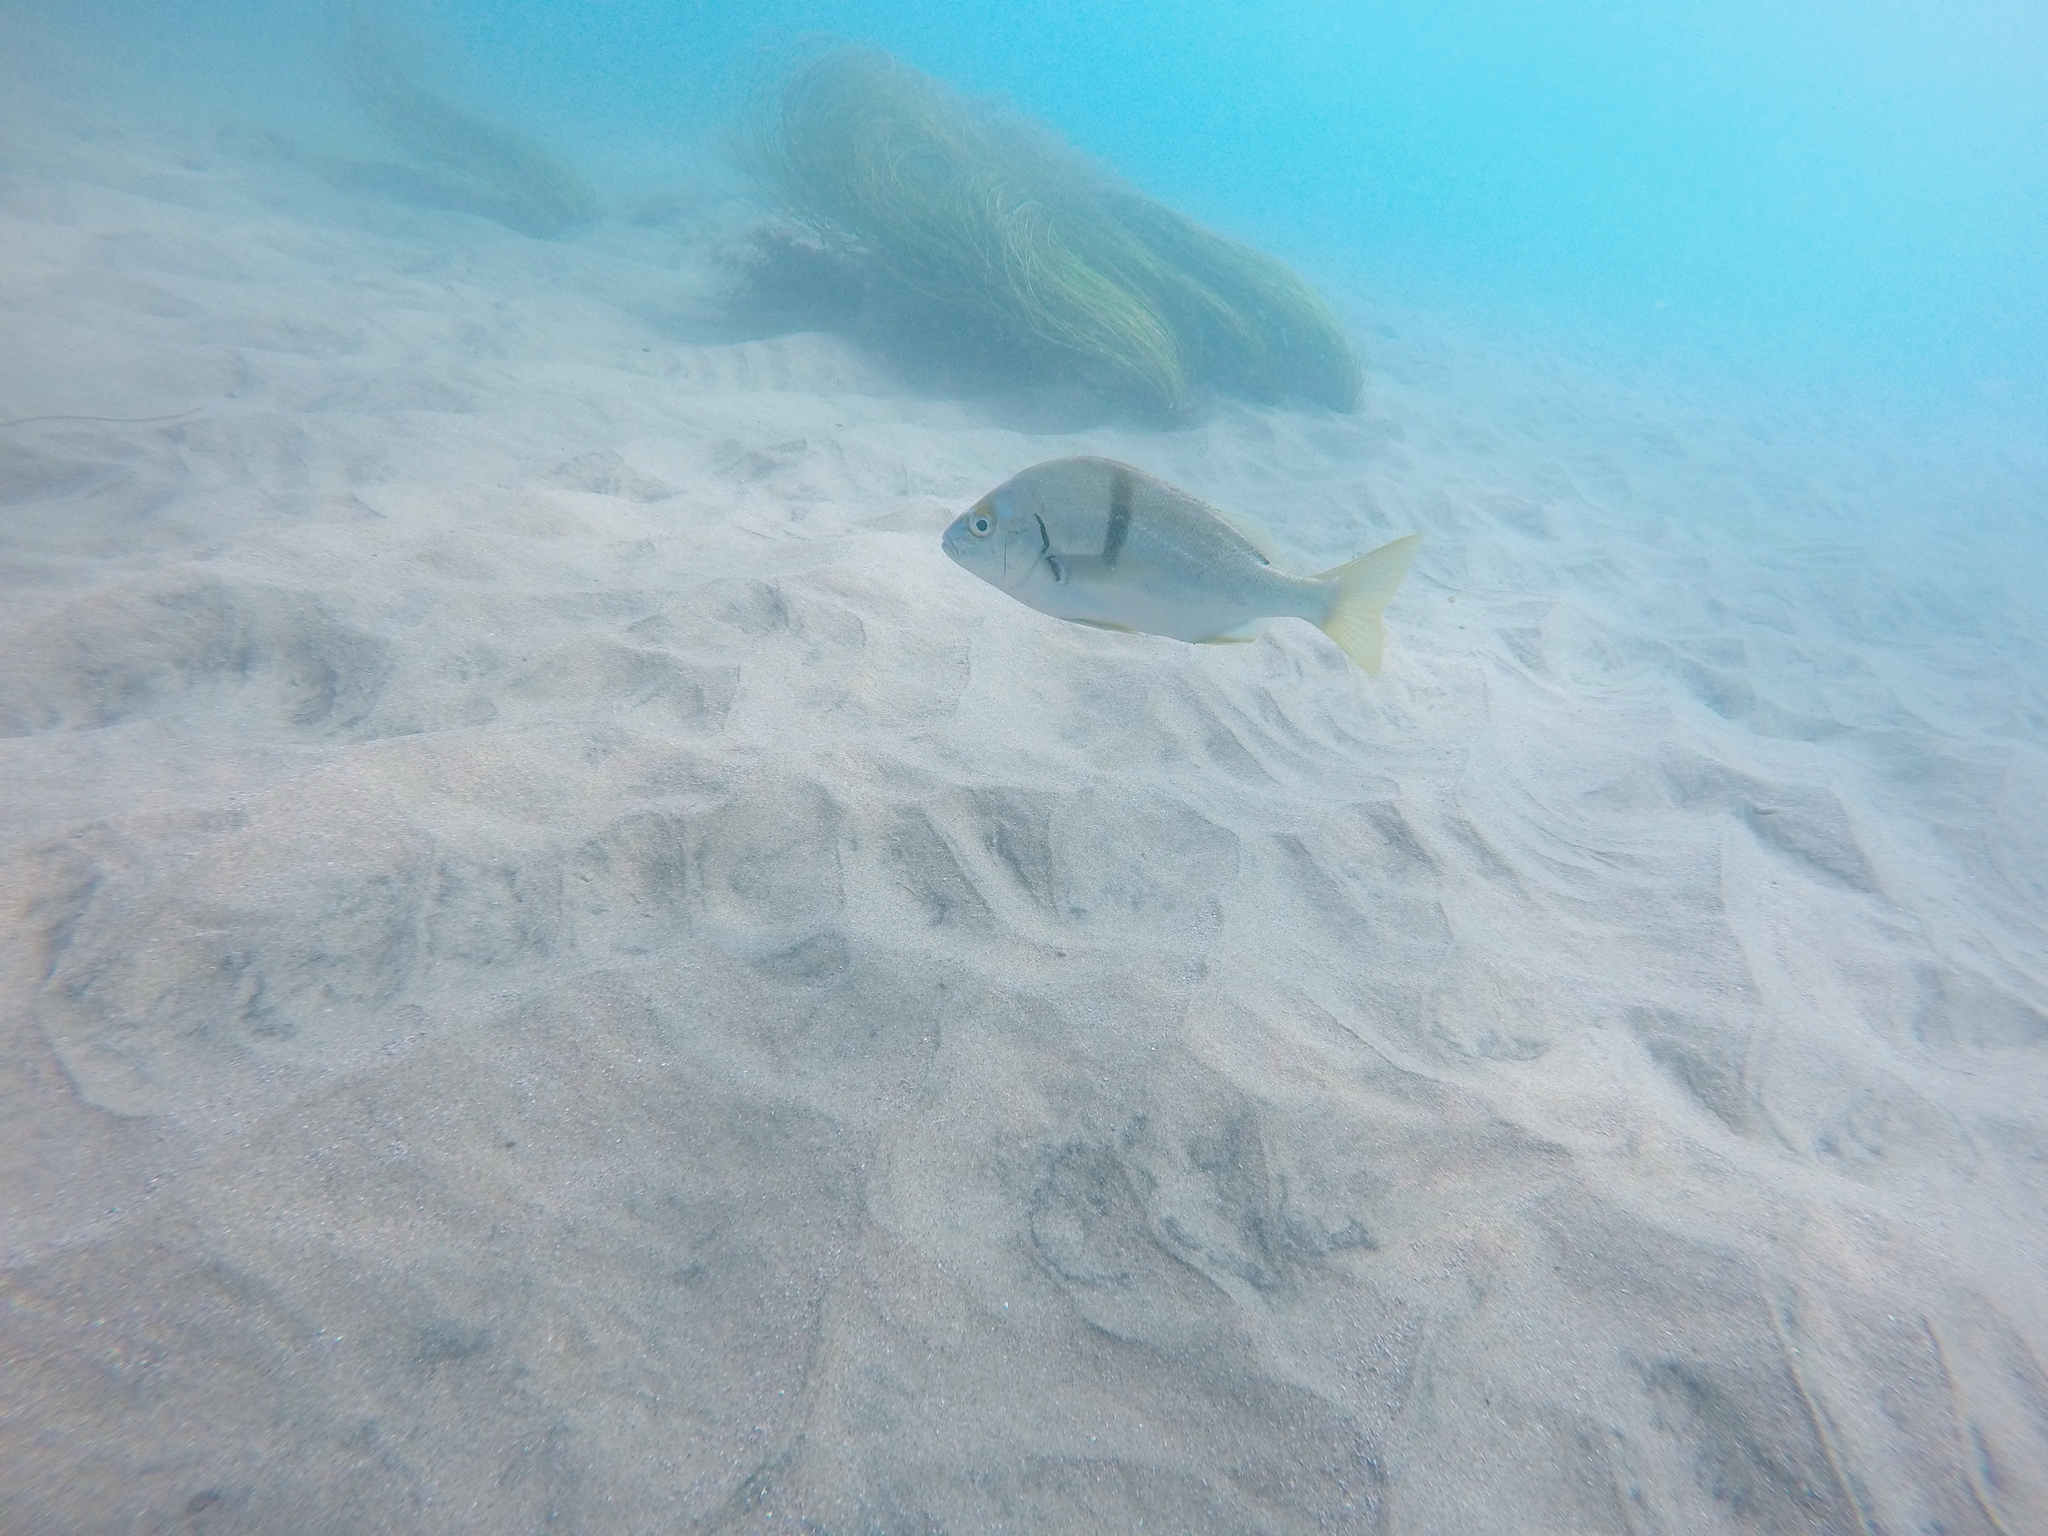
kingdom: Animalia
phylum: Chordata
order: Perciformes
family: Haemulidae
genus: Anisotremus
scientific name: Anisotremus davidsonii
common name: Grunt
